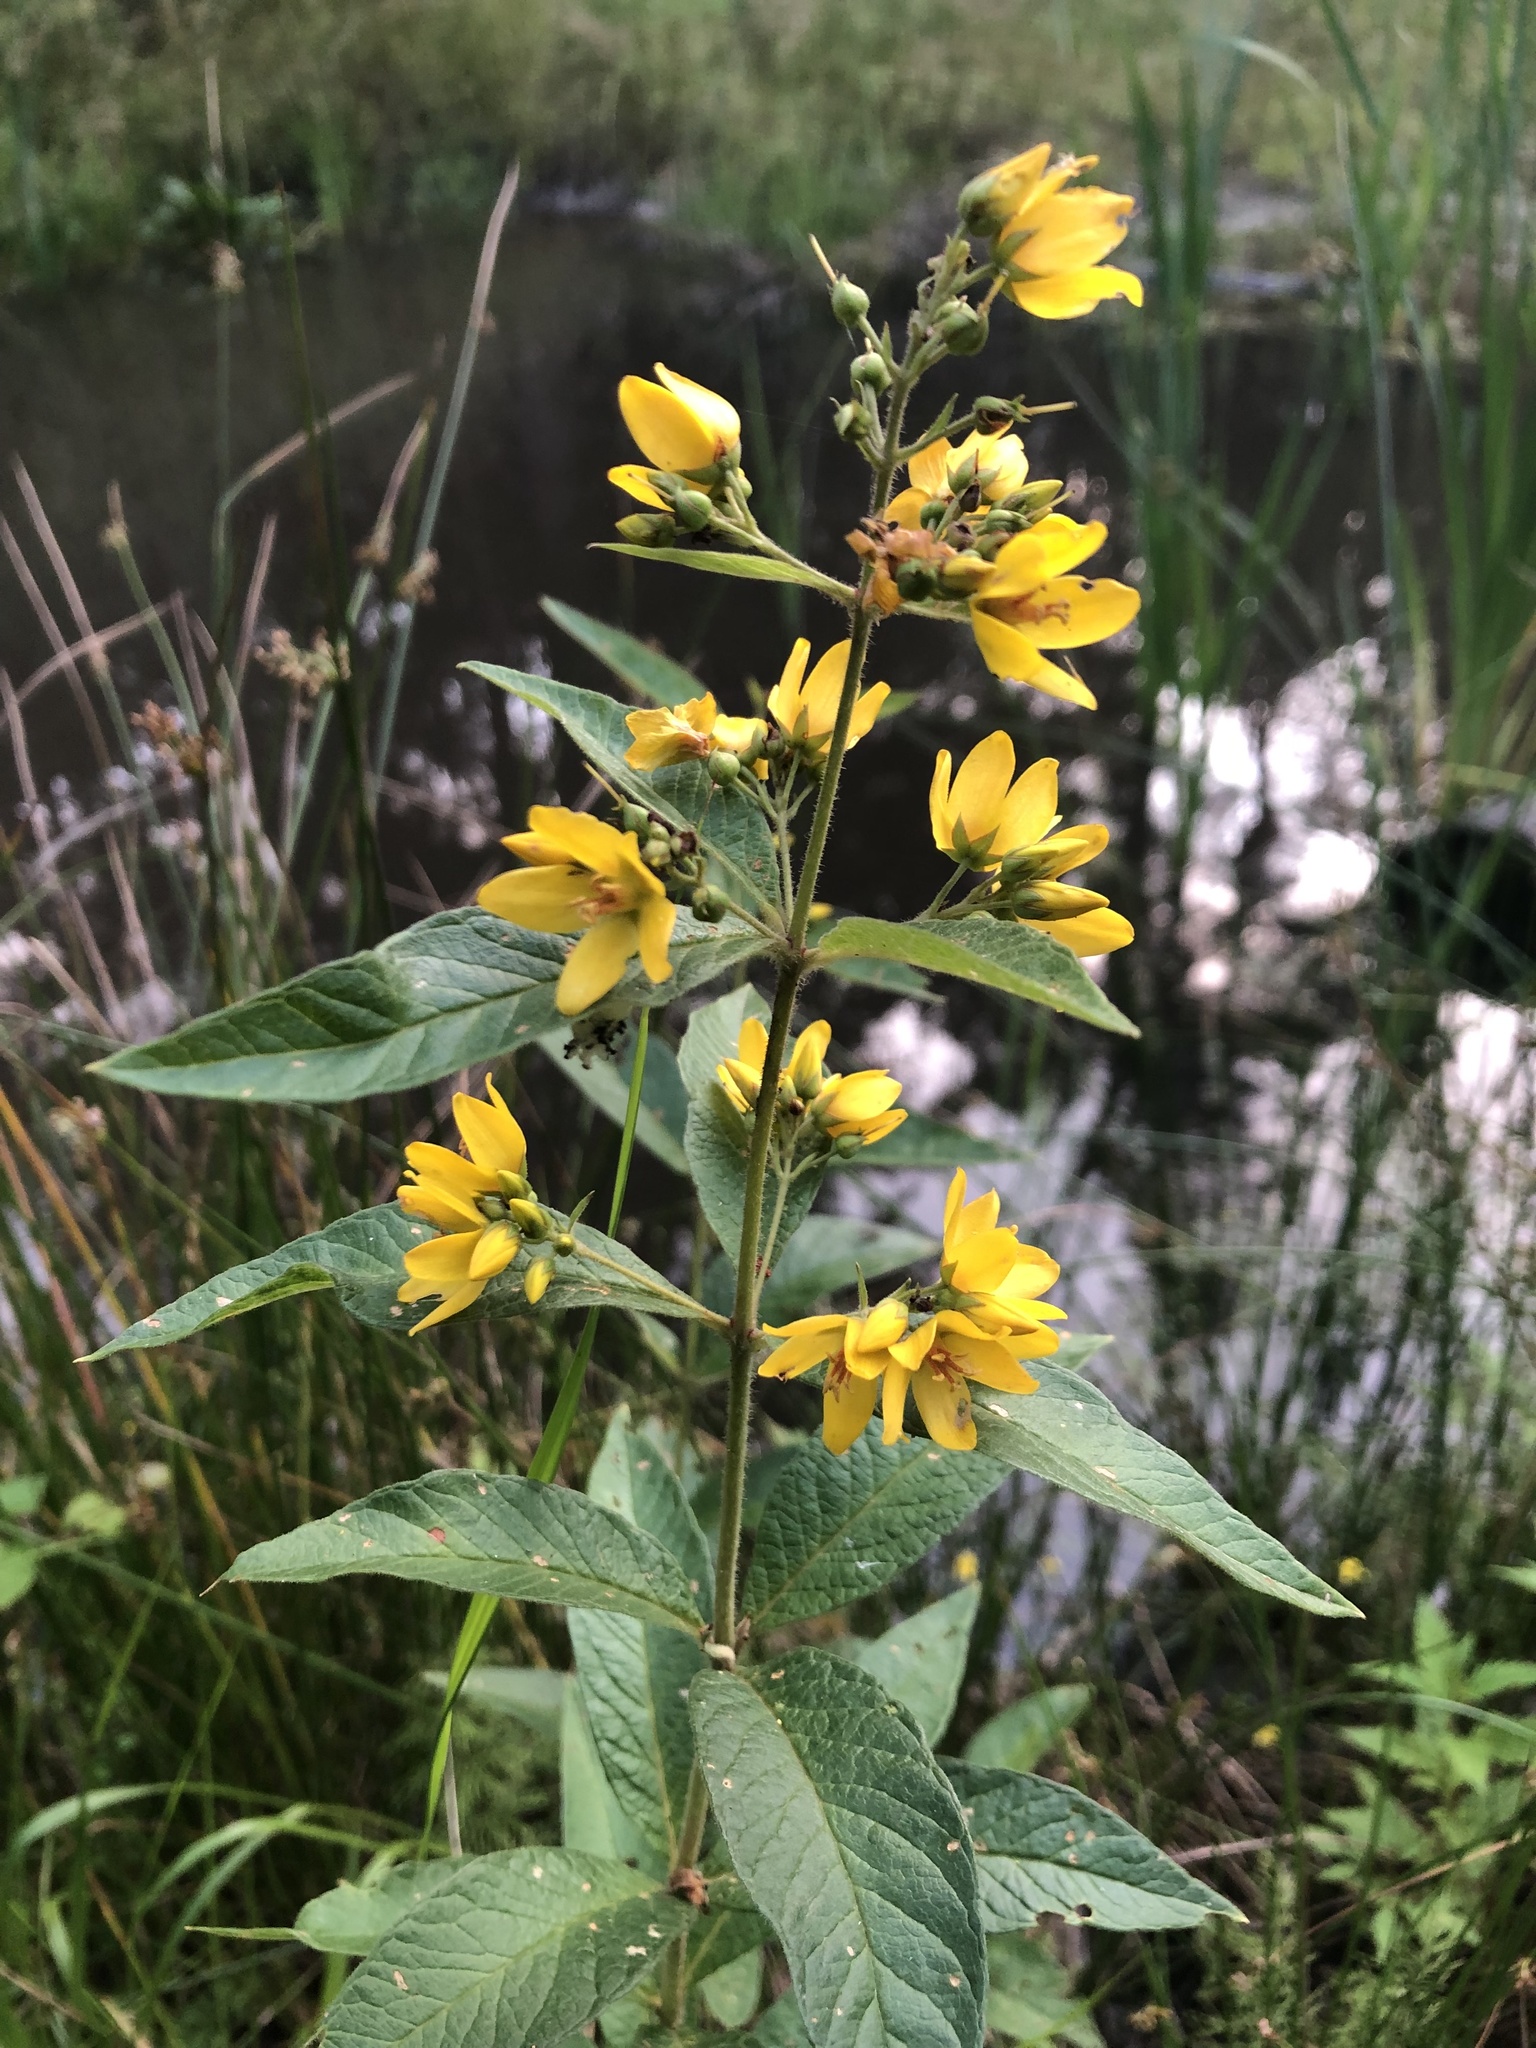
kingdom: Plantae
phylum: Tracheophyta
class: Magnoliopsida
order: Ericales
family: Primulaceae
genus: Lysimachia
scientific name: Lysimachia vulgaris
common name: Yellow loosestrife
